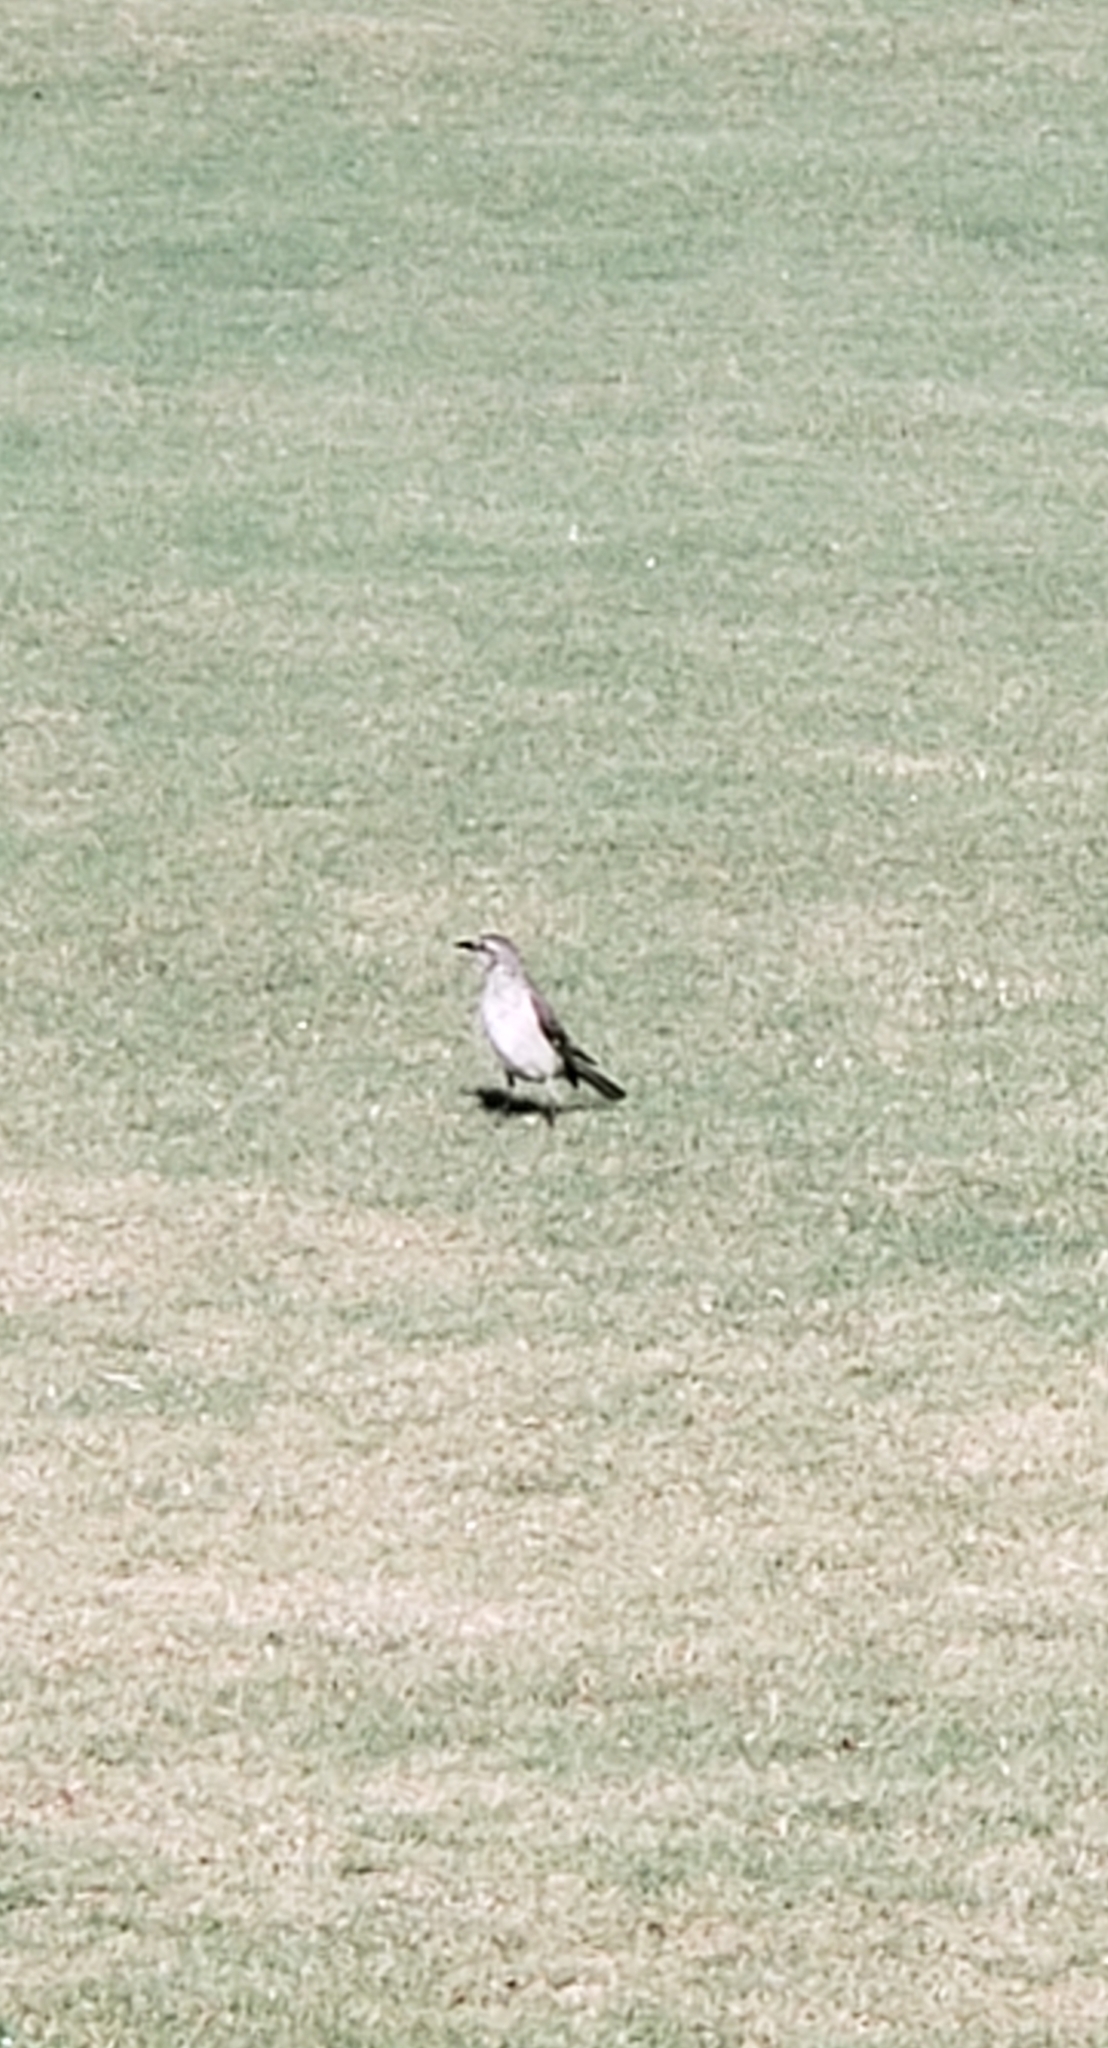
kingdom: Animalia
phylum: Chordata
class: Aves
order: Passeriformes
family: Mimidae
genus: Mimus
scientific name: Mimus polyglottos
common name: Northern mockingbird
